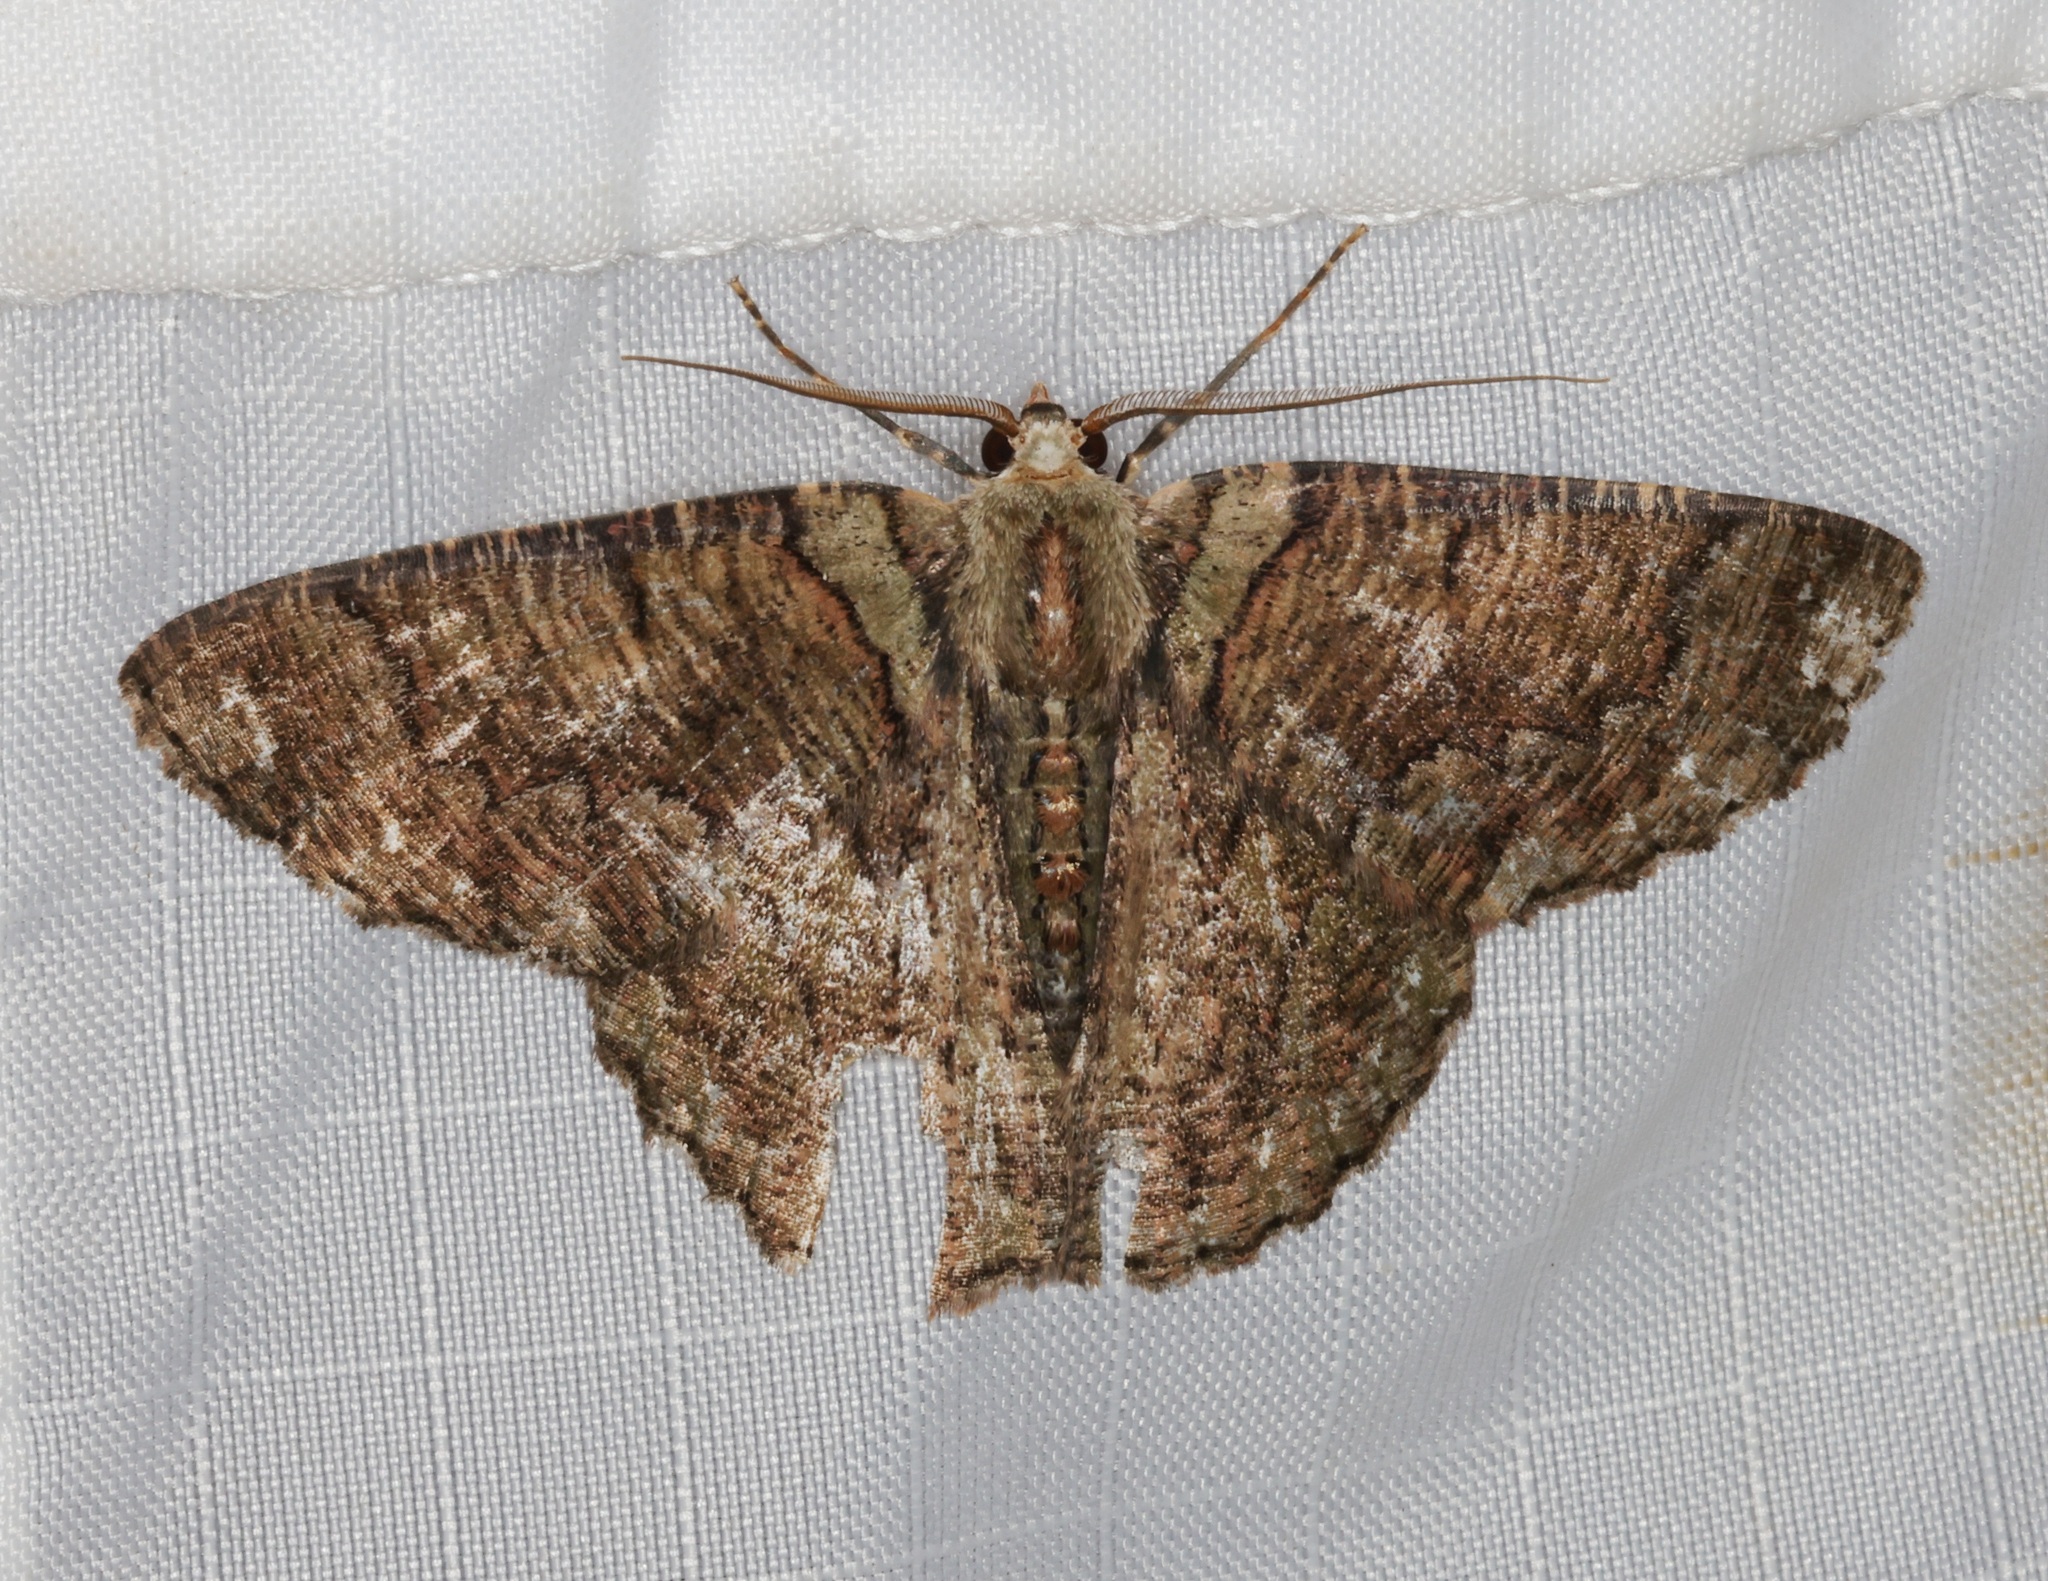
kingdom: Animalia
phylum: Arthropoda
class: Insecta
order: Lepidoptera
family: Geometridae
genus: Lophophelma
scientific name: Lophophelma calaurops
